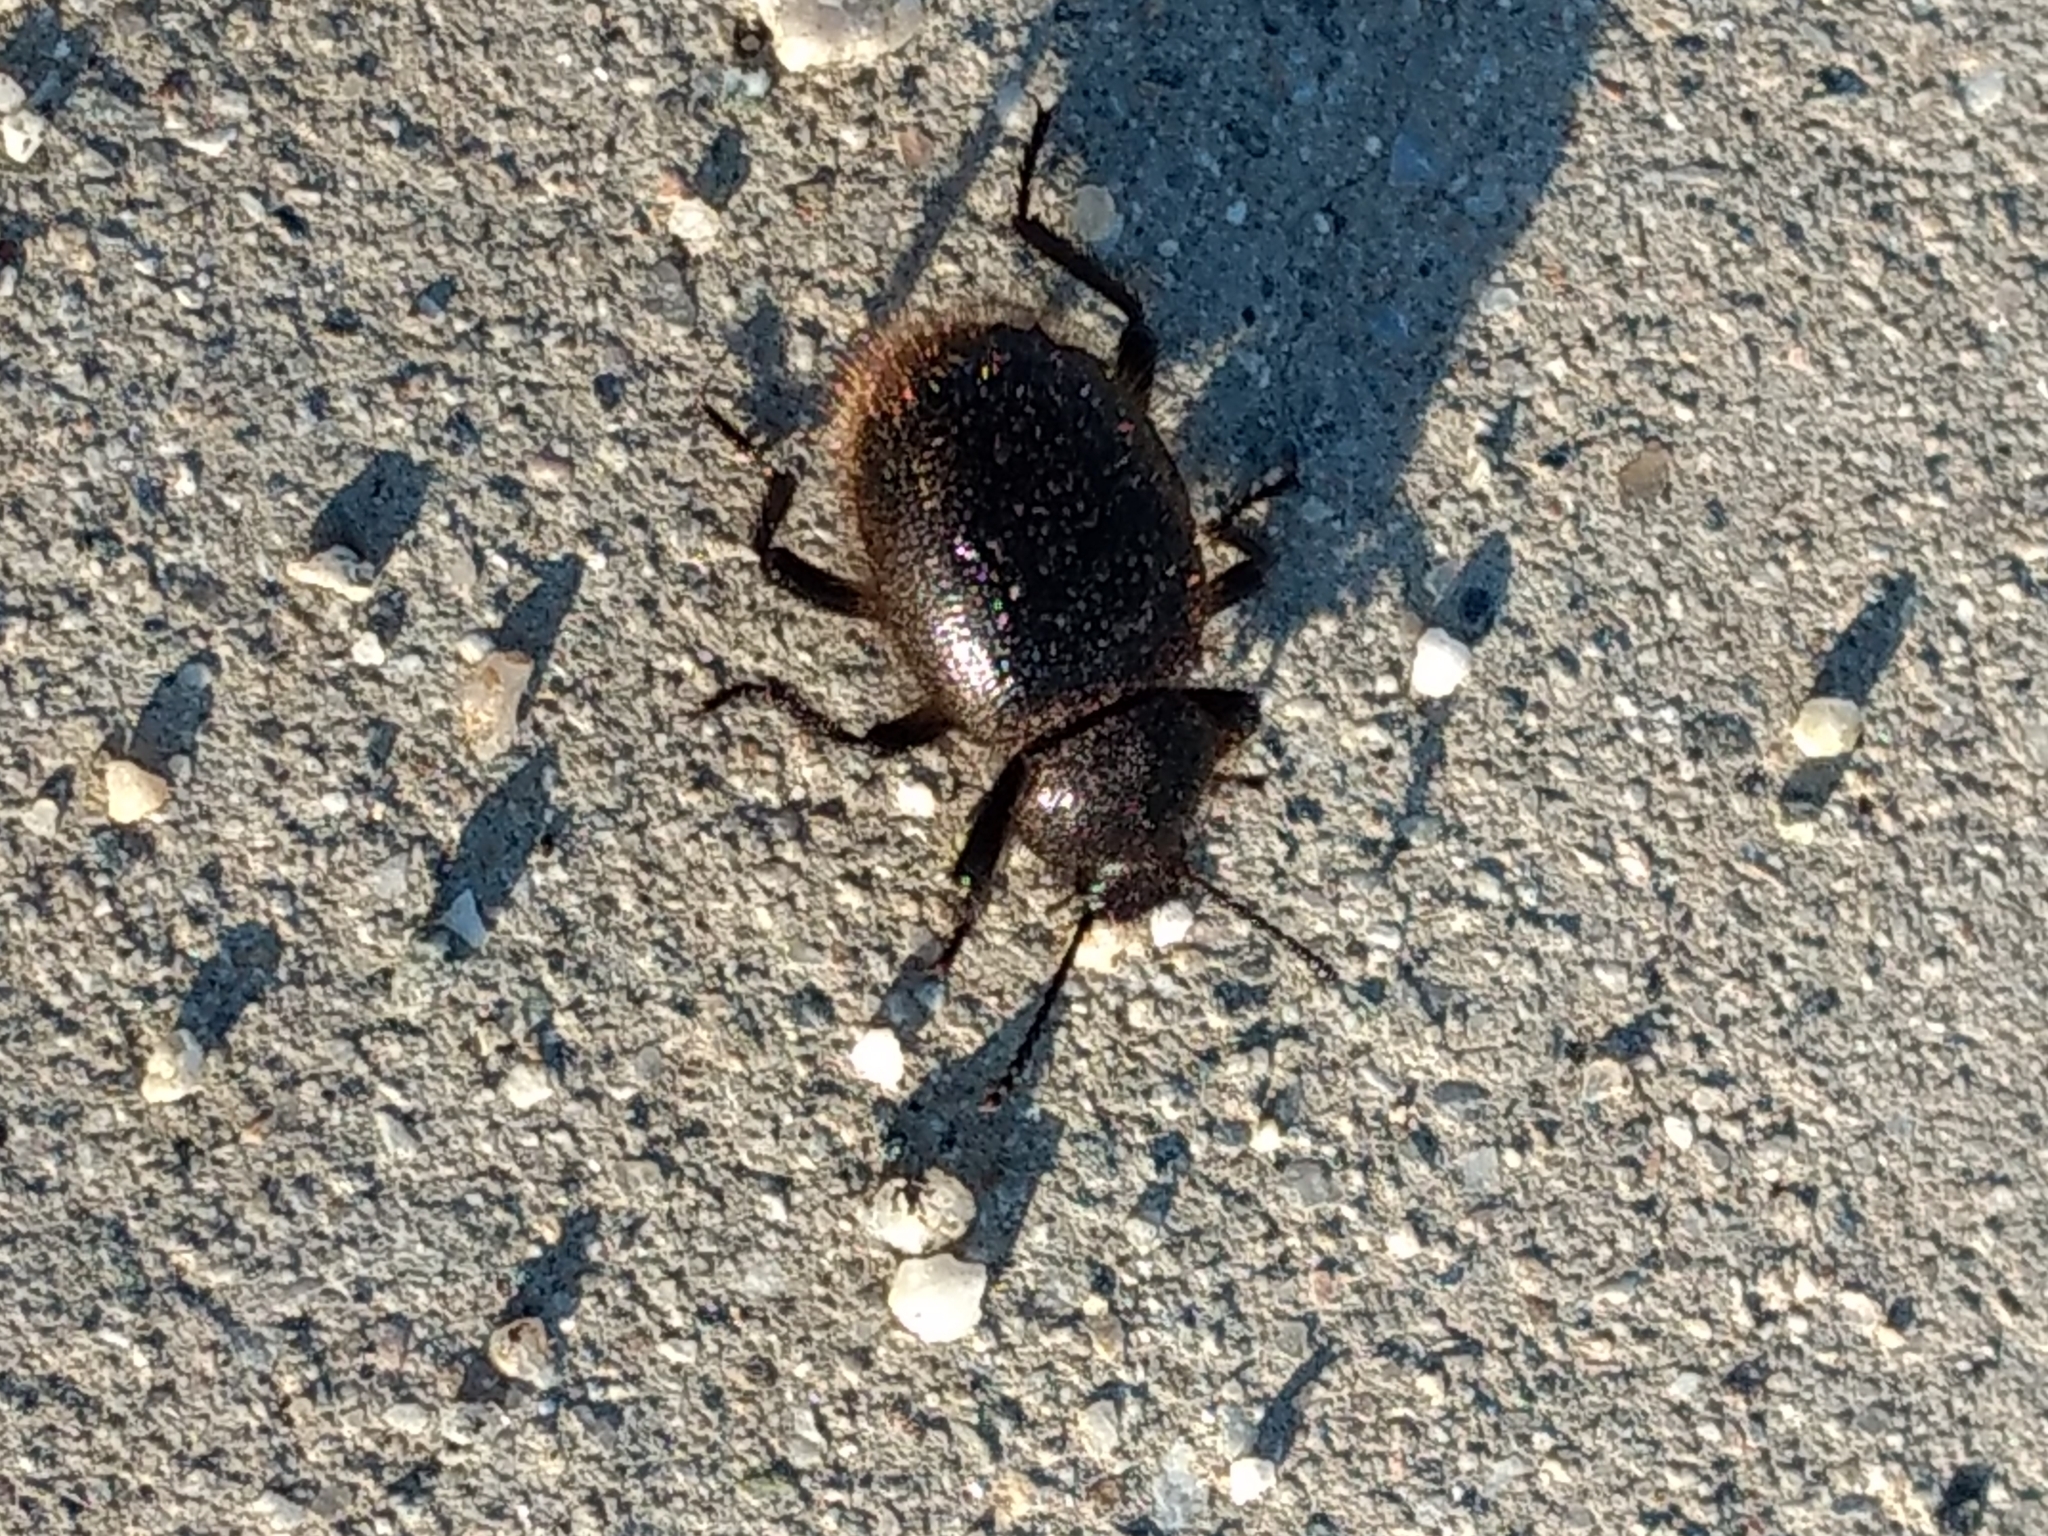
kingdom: Animalia
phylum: Arthropoda
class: Insecta
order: Coleoptera
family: Tenebrionidae
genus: Eleodes
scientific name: Eleodes osculans
